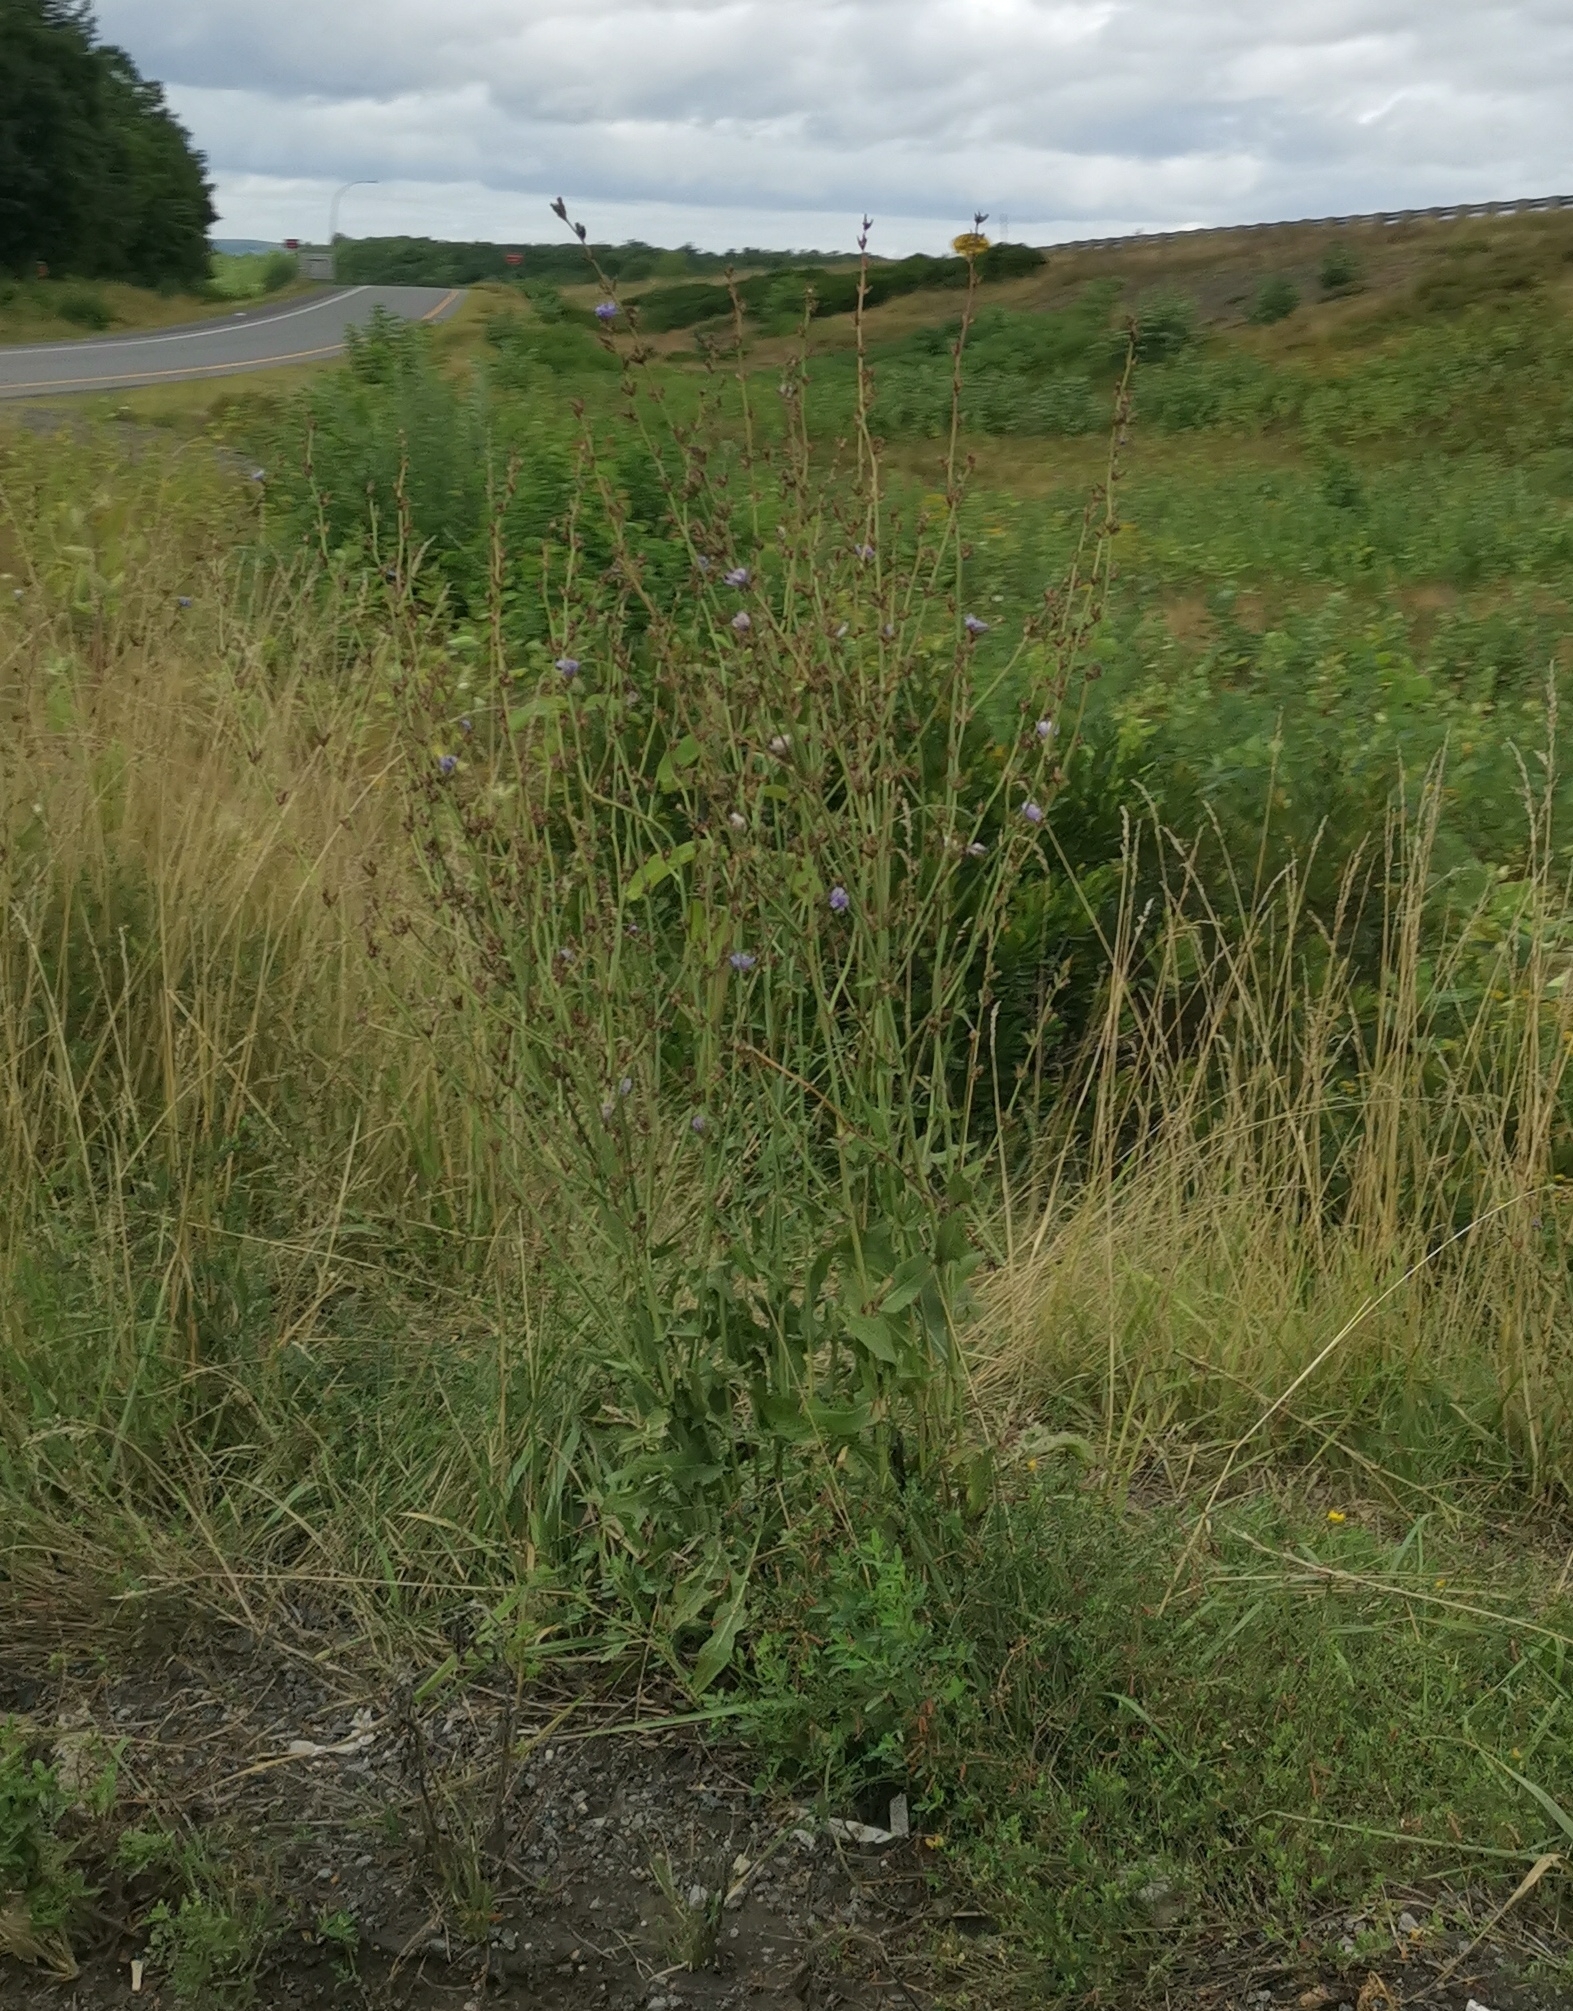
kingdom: Plantae
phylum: Tracheophyta
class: Magnoliopsida
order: Asterales
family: Asteraceae
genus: Cichorium
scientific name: Cichorium intybus
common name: Chicory
